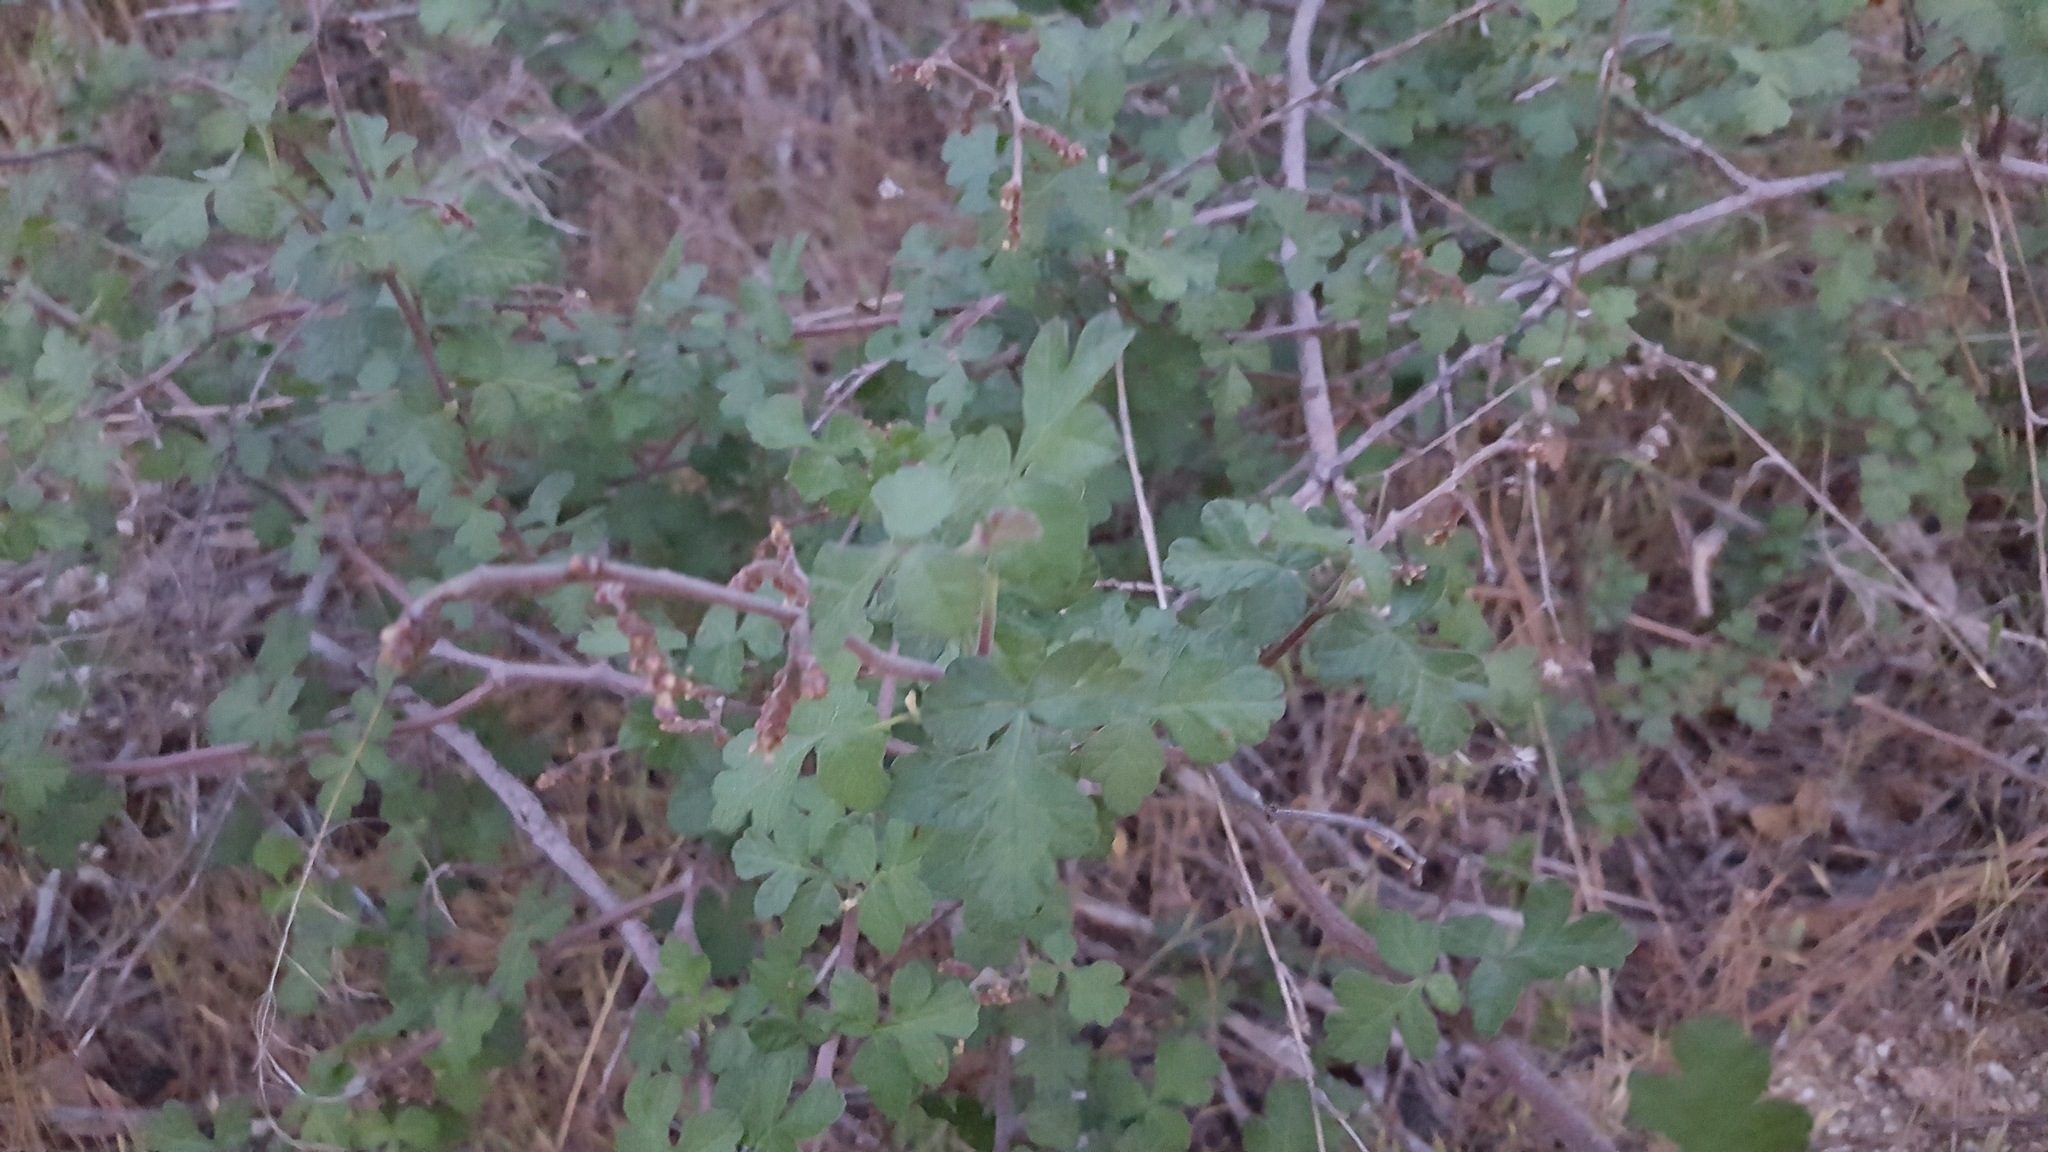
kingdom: Plantae
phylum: Tracheophyta
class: Magnoliopsida
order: Sapindales
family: Anacardiaceae
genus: Rhus
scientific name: Rhus aromatica
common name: Aromatic sumac
